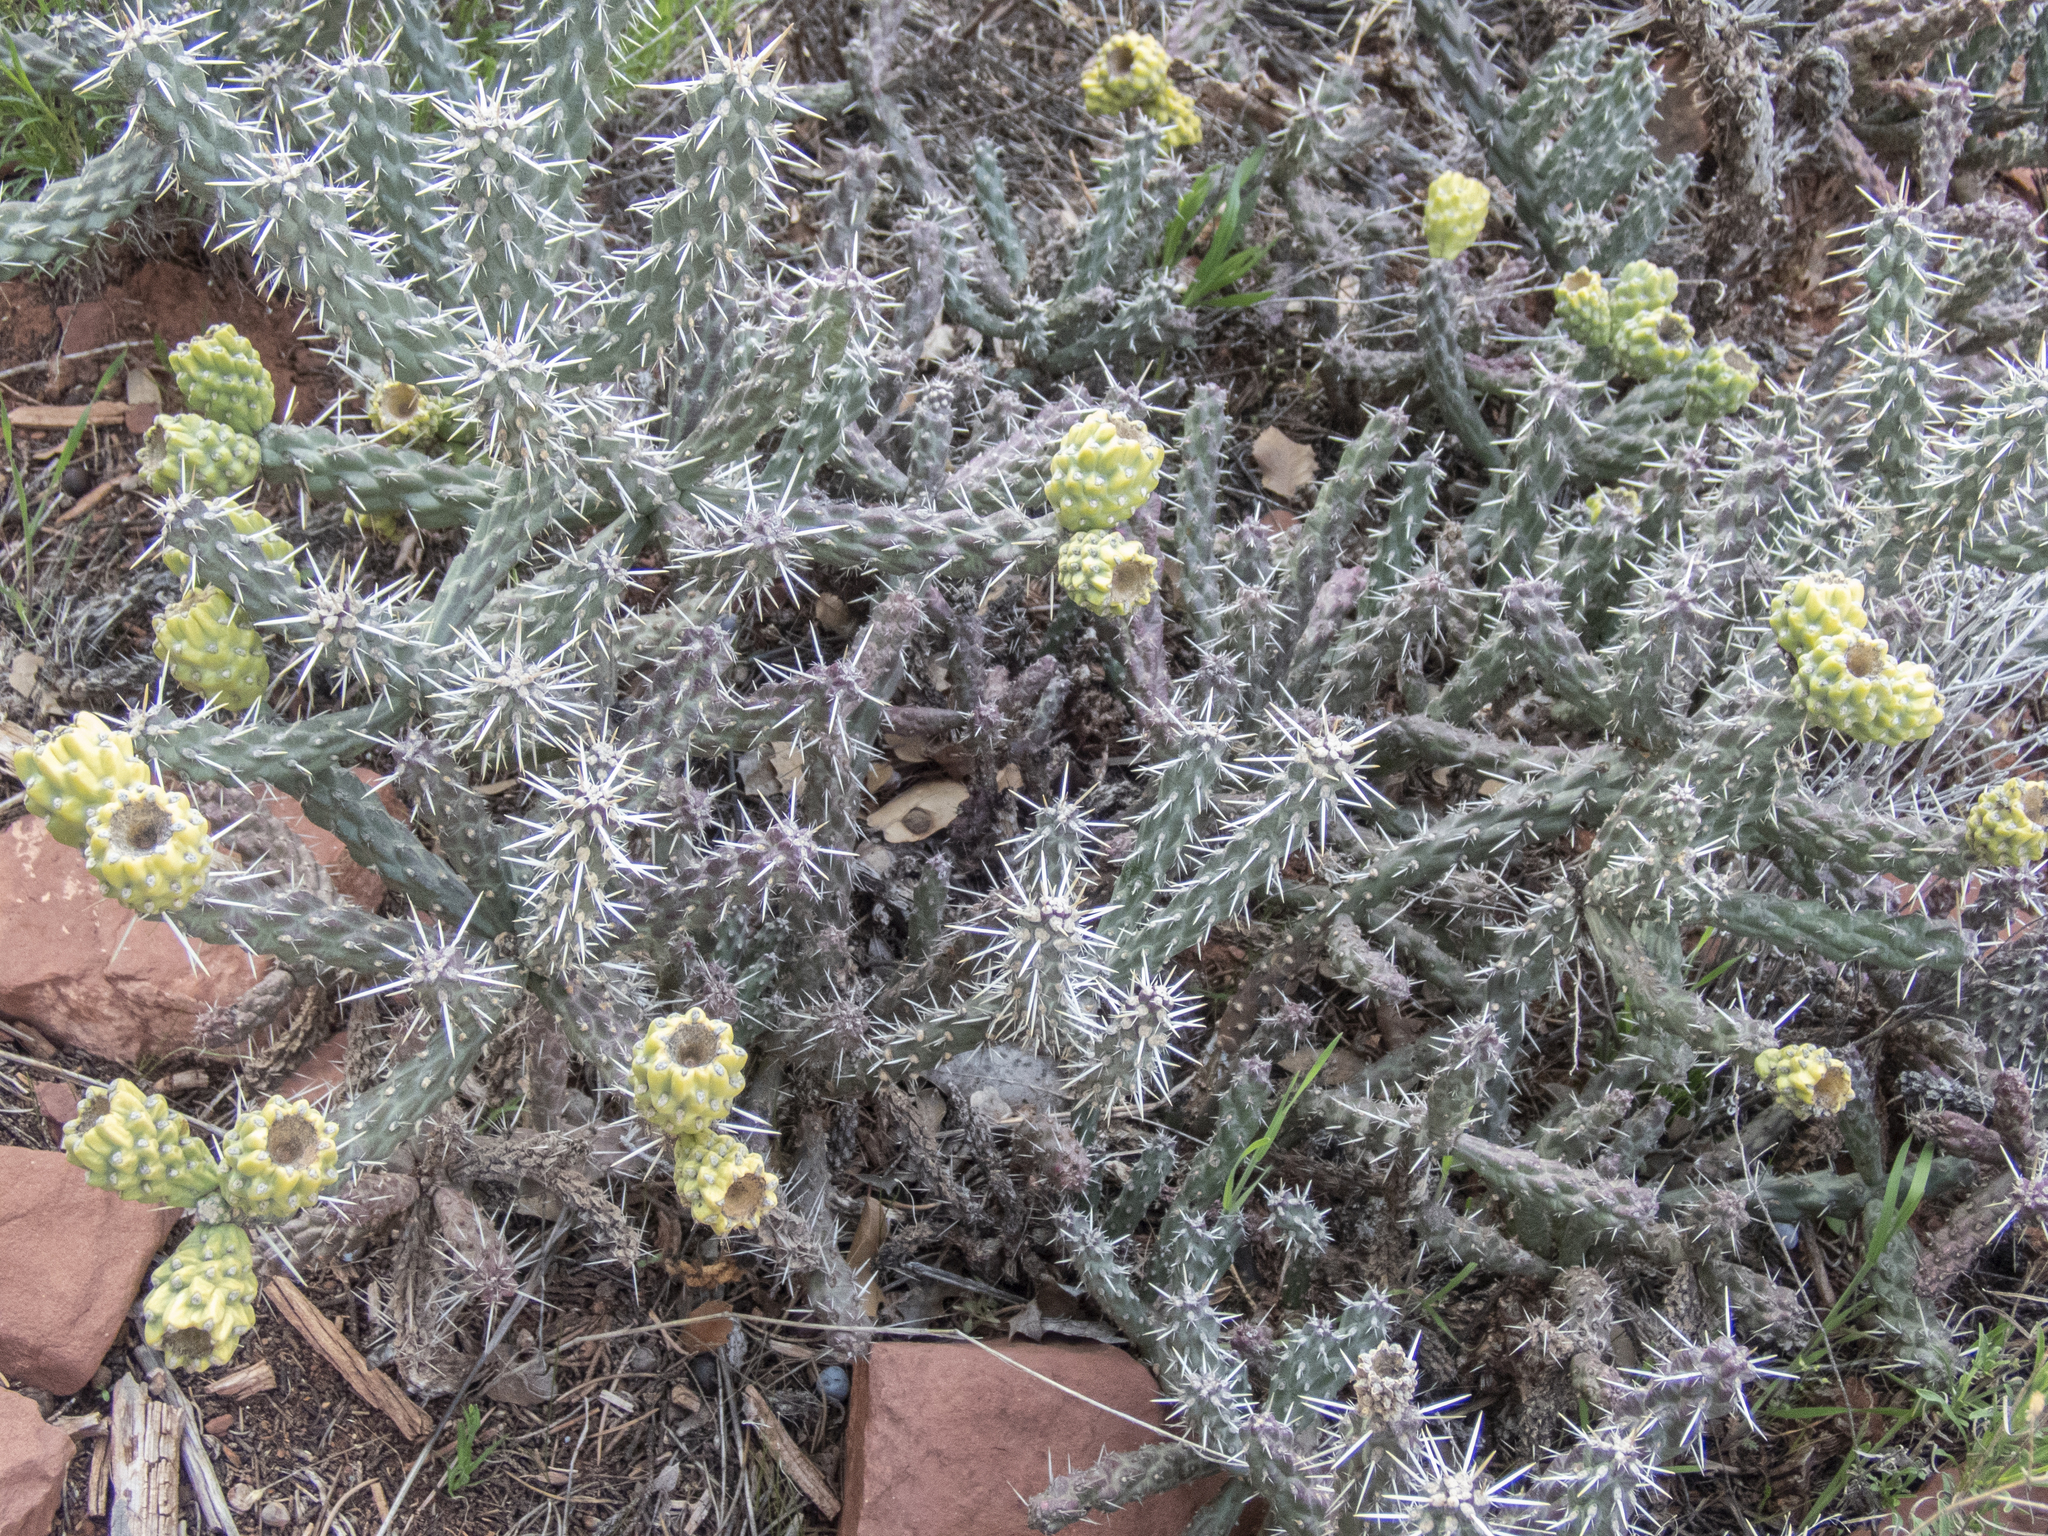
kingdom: Plantae
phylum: Tracheophyta
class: Magnoliopsida
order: Caryophyllales
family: Cactaceae
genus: Cylindropuntia
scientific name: Cylindropuntia whipplei
